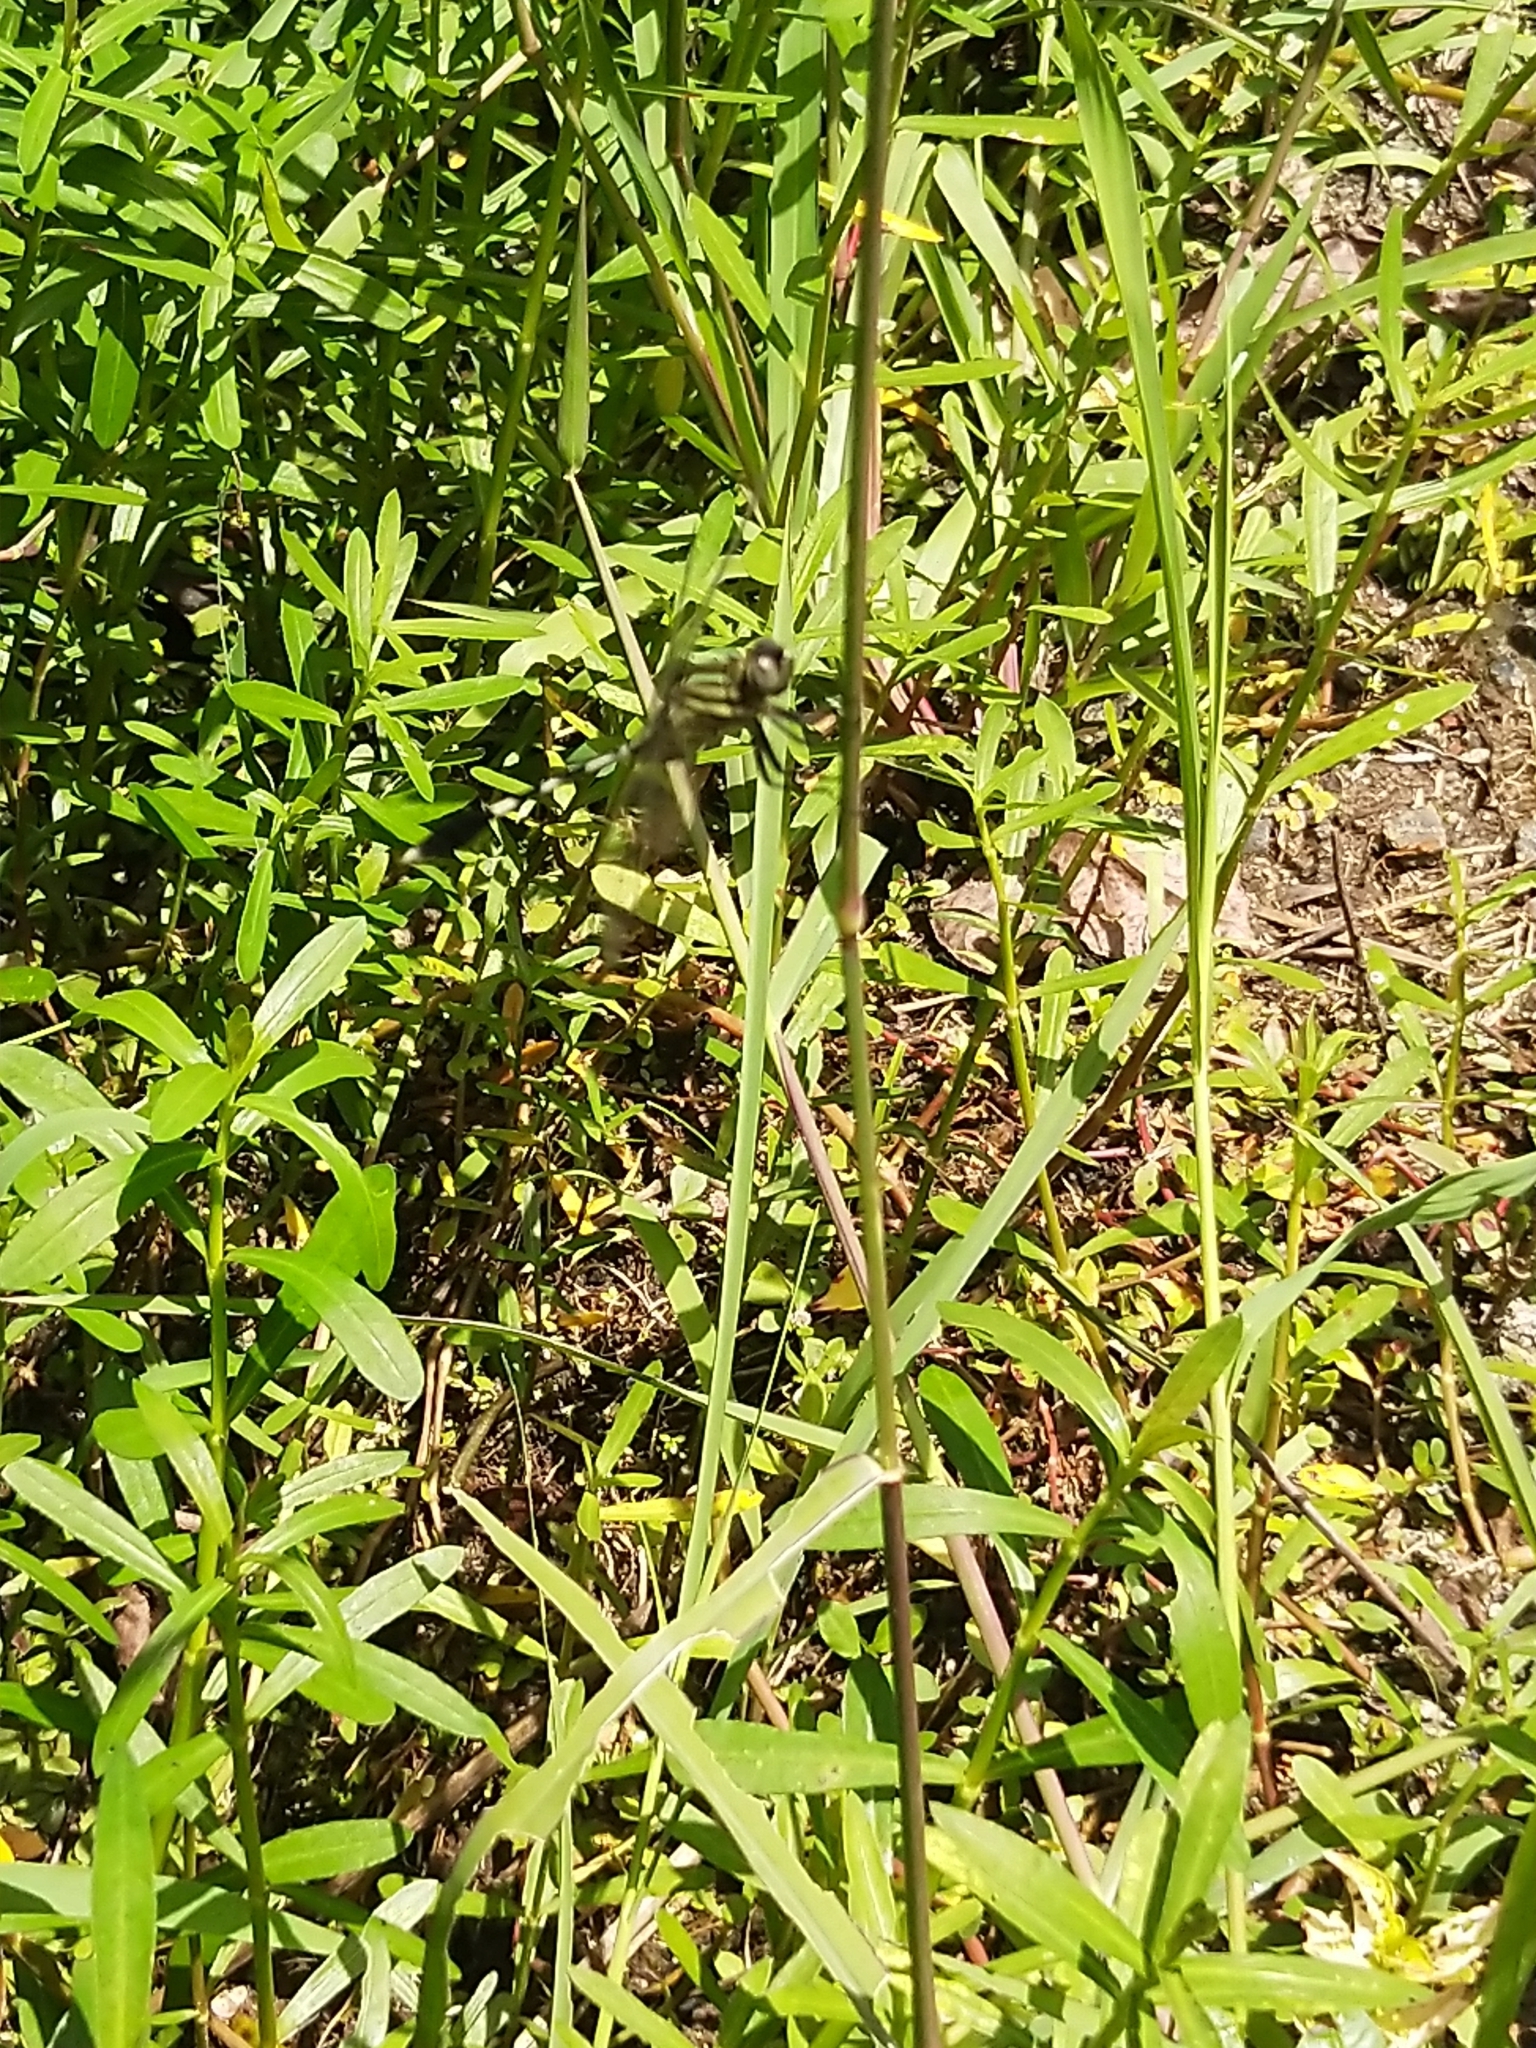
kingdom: Animalia
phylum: Arthropoda
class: Insecta
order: Odonata
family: Libellulidae
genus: Orthetrum
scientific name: Orthetrum sabina
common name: Slender skimmer
